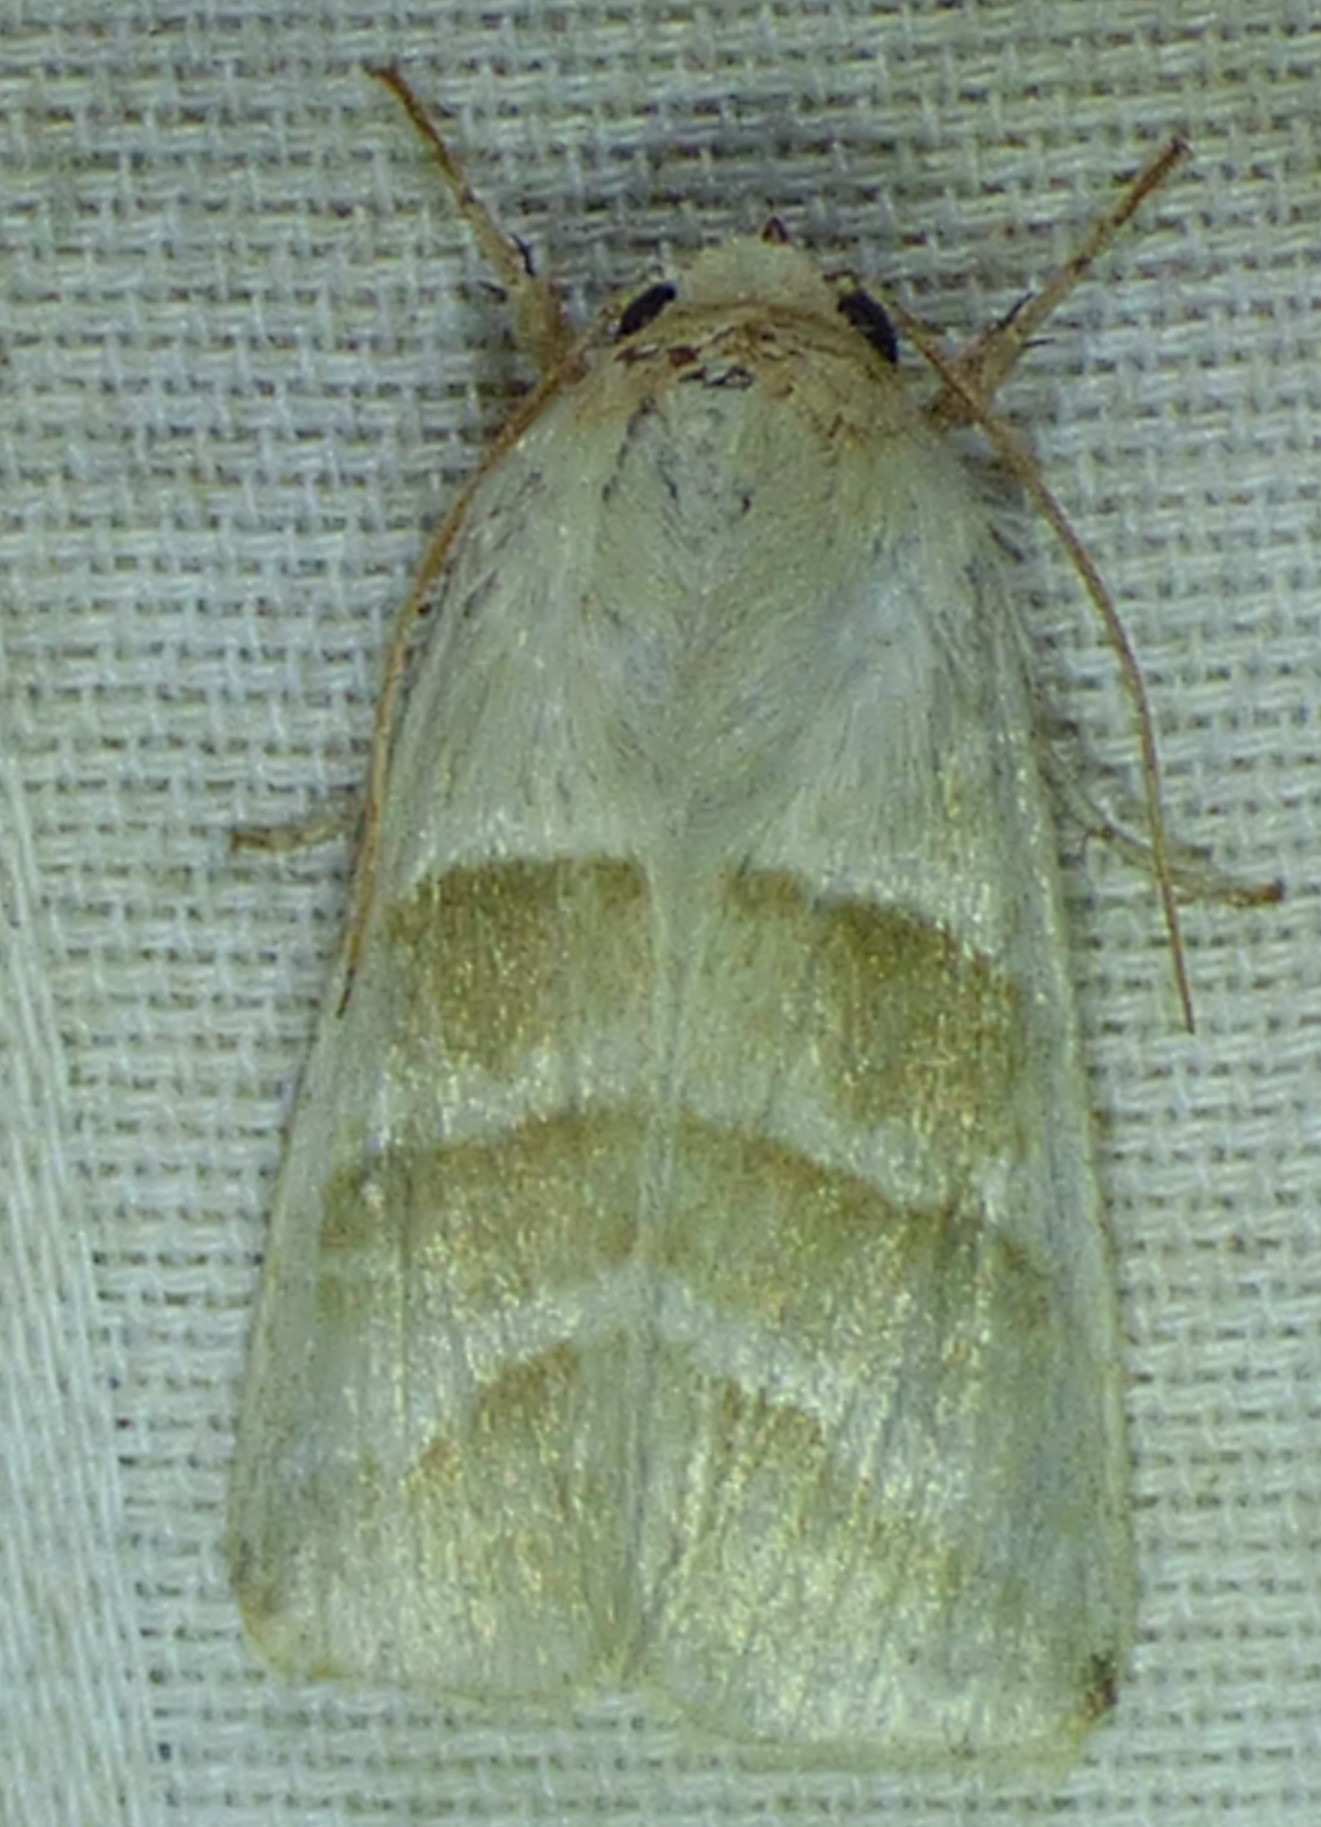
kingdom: Animalia
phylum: Arthropoda
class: Insecta
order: Lepidoptera
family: Noctuidae
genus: Chloridea
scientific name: Chloridea virescens
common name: Tobacco budworm
